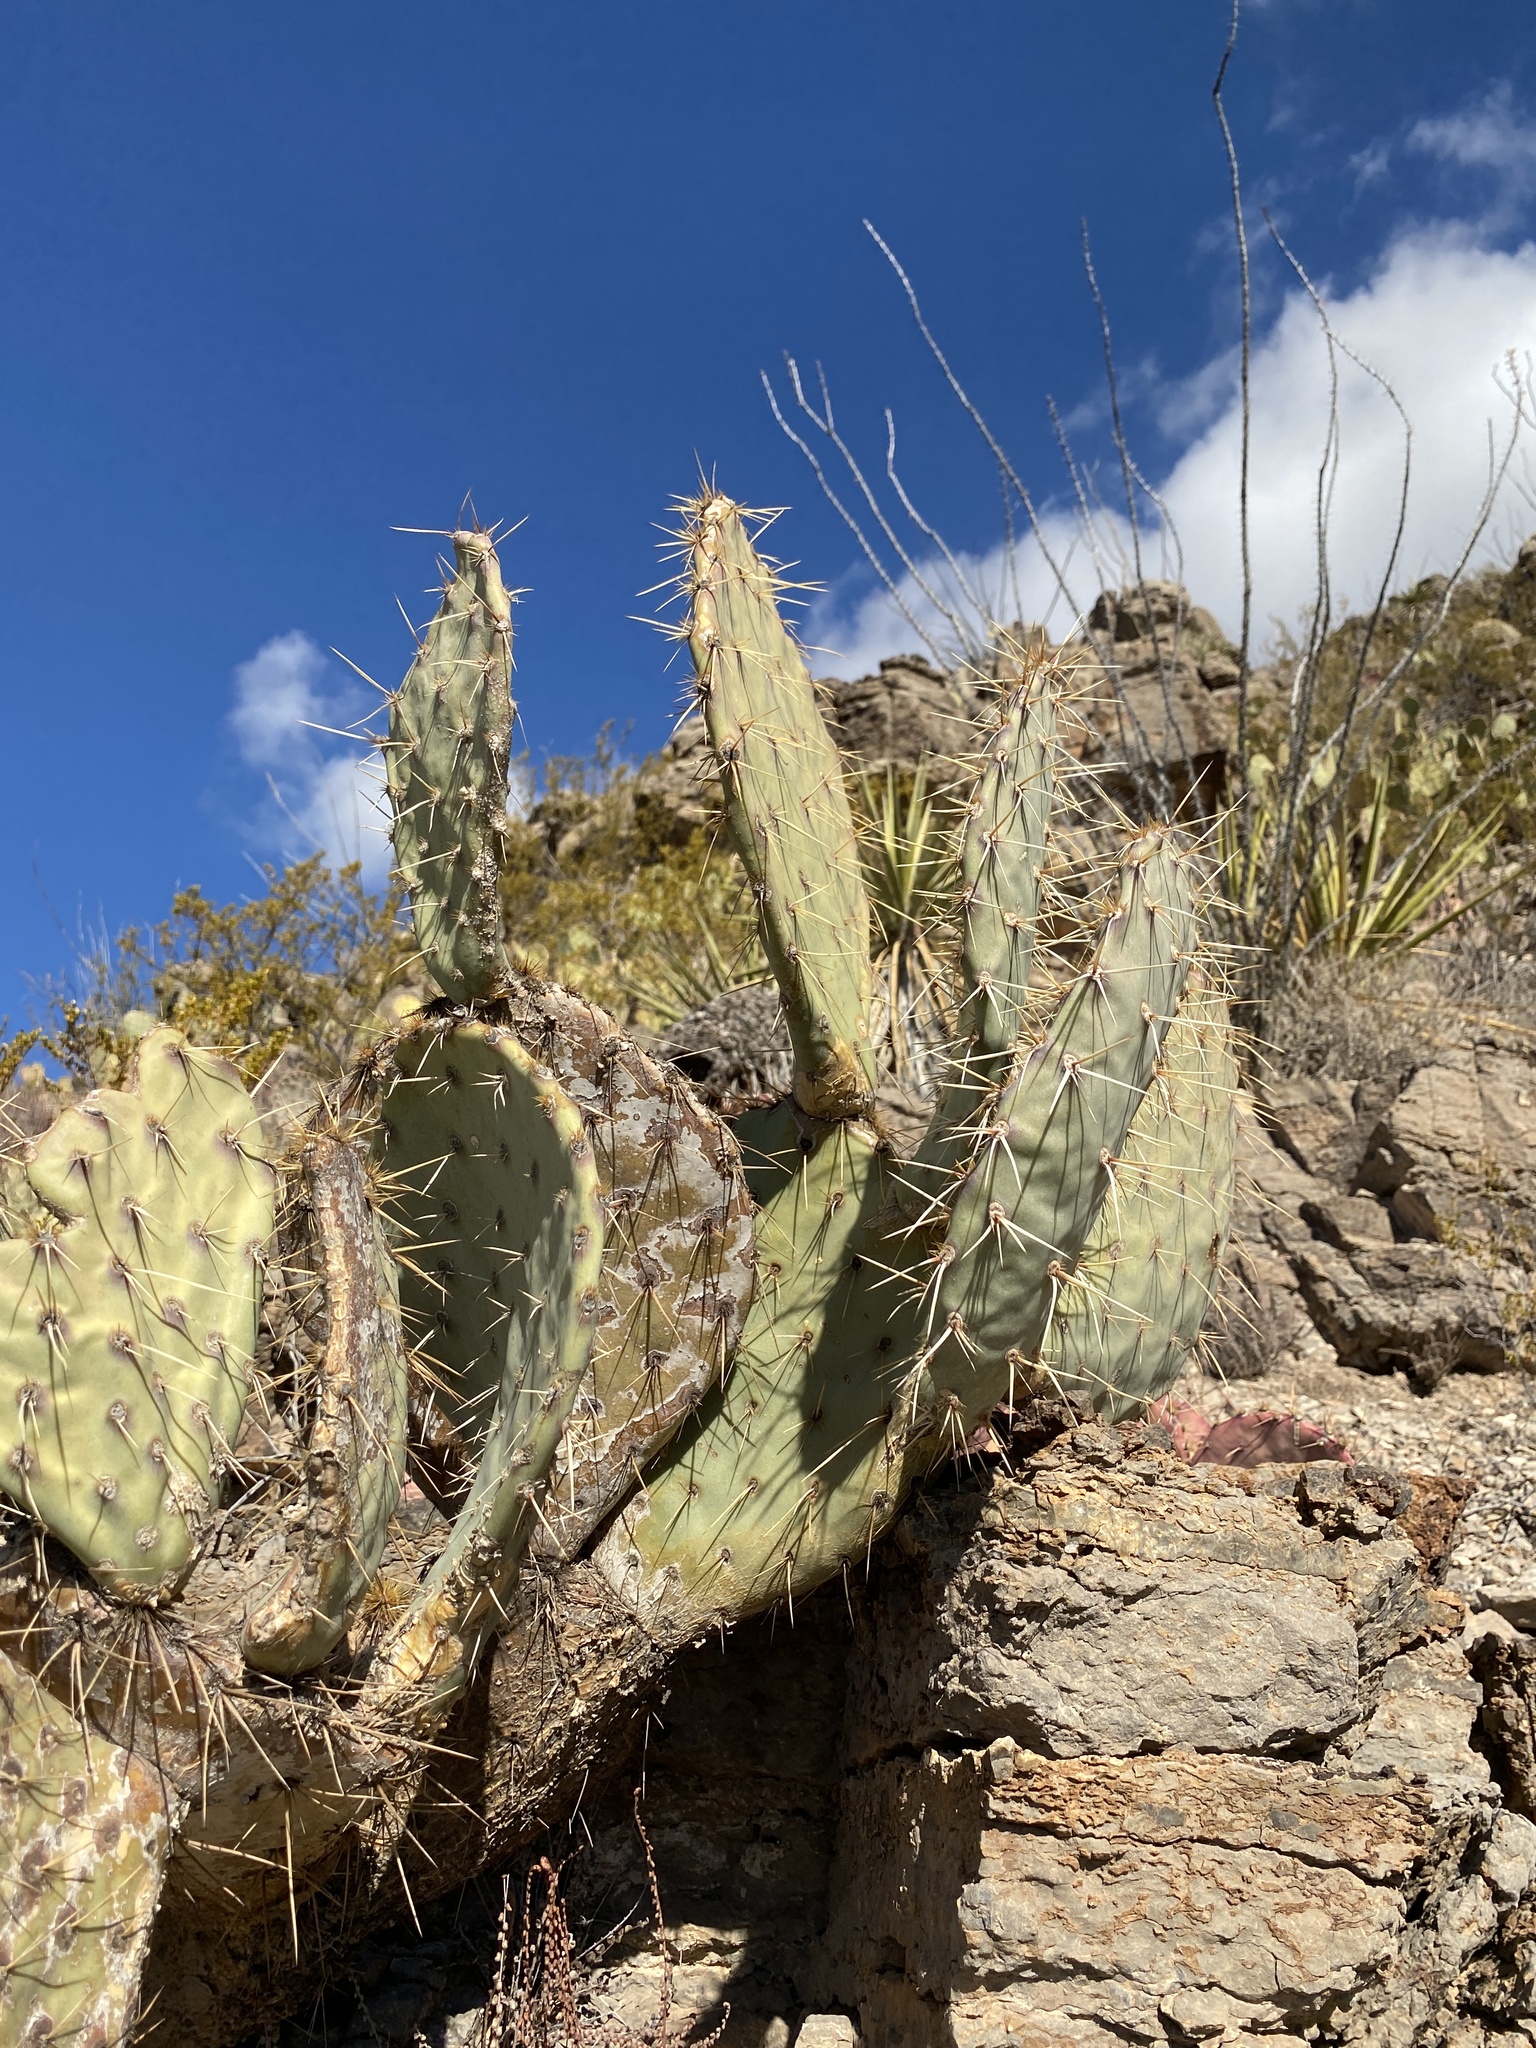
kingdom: Plantae
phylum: Tracheophyta
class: Magnoliopsida
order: Caryophyllales
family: Cactaceae
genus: Opuntia
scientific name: Opuntia engelmannii
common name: Cactus-apple
